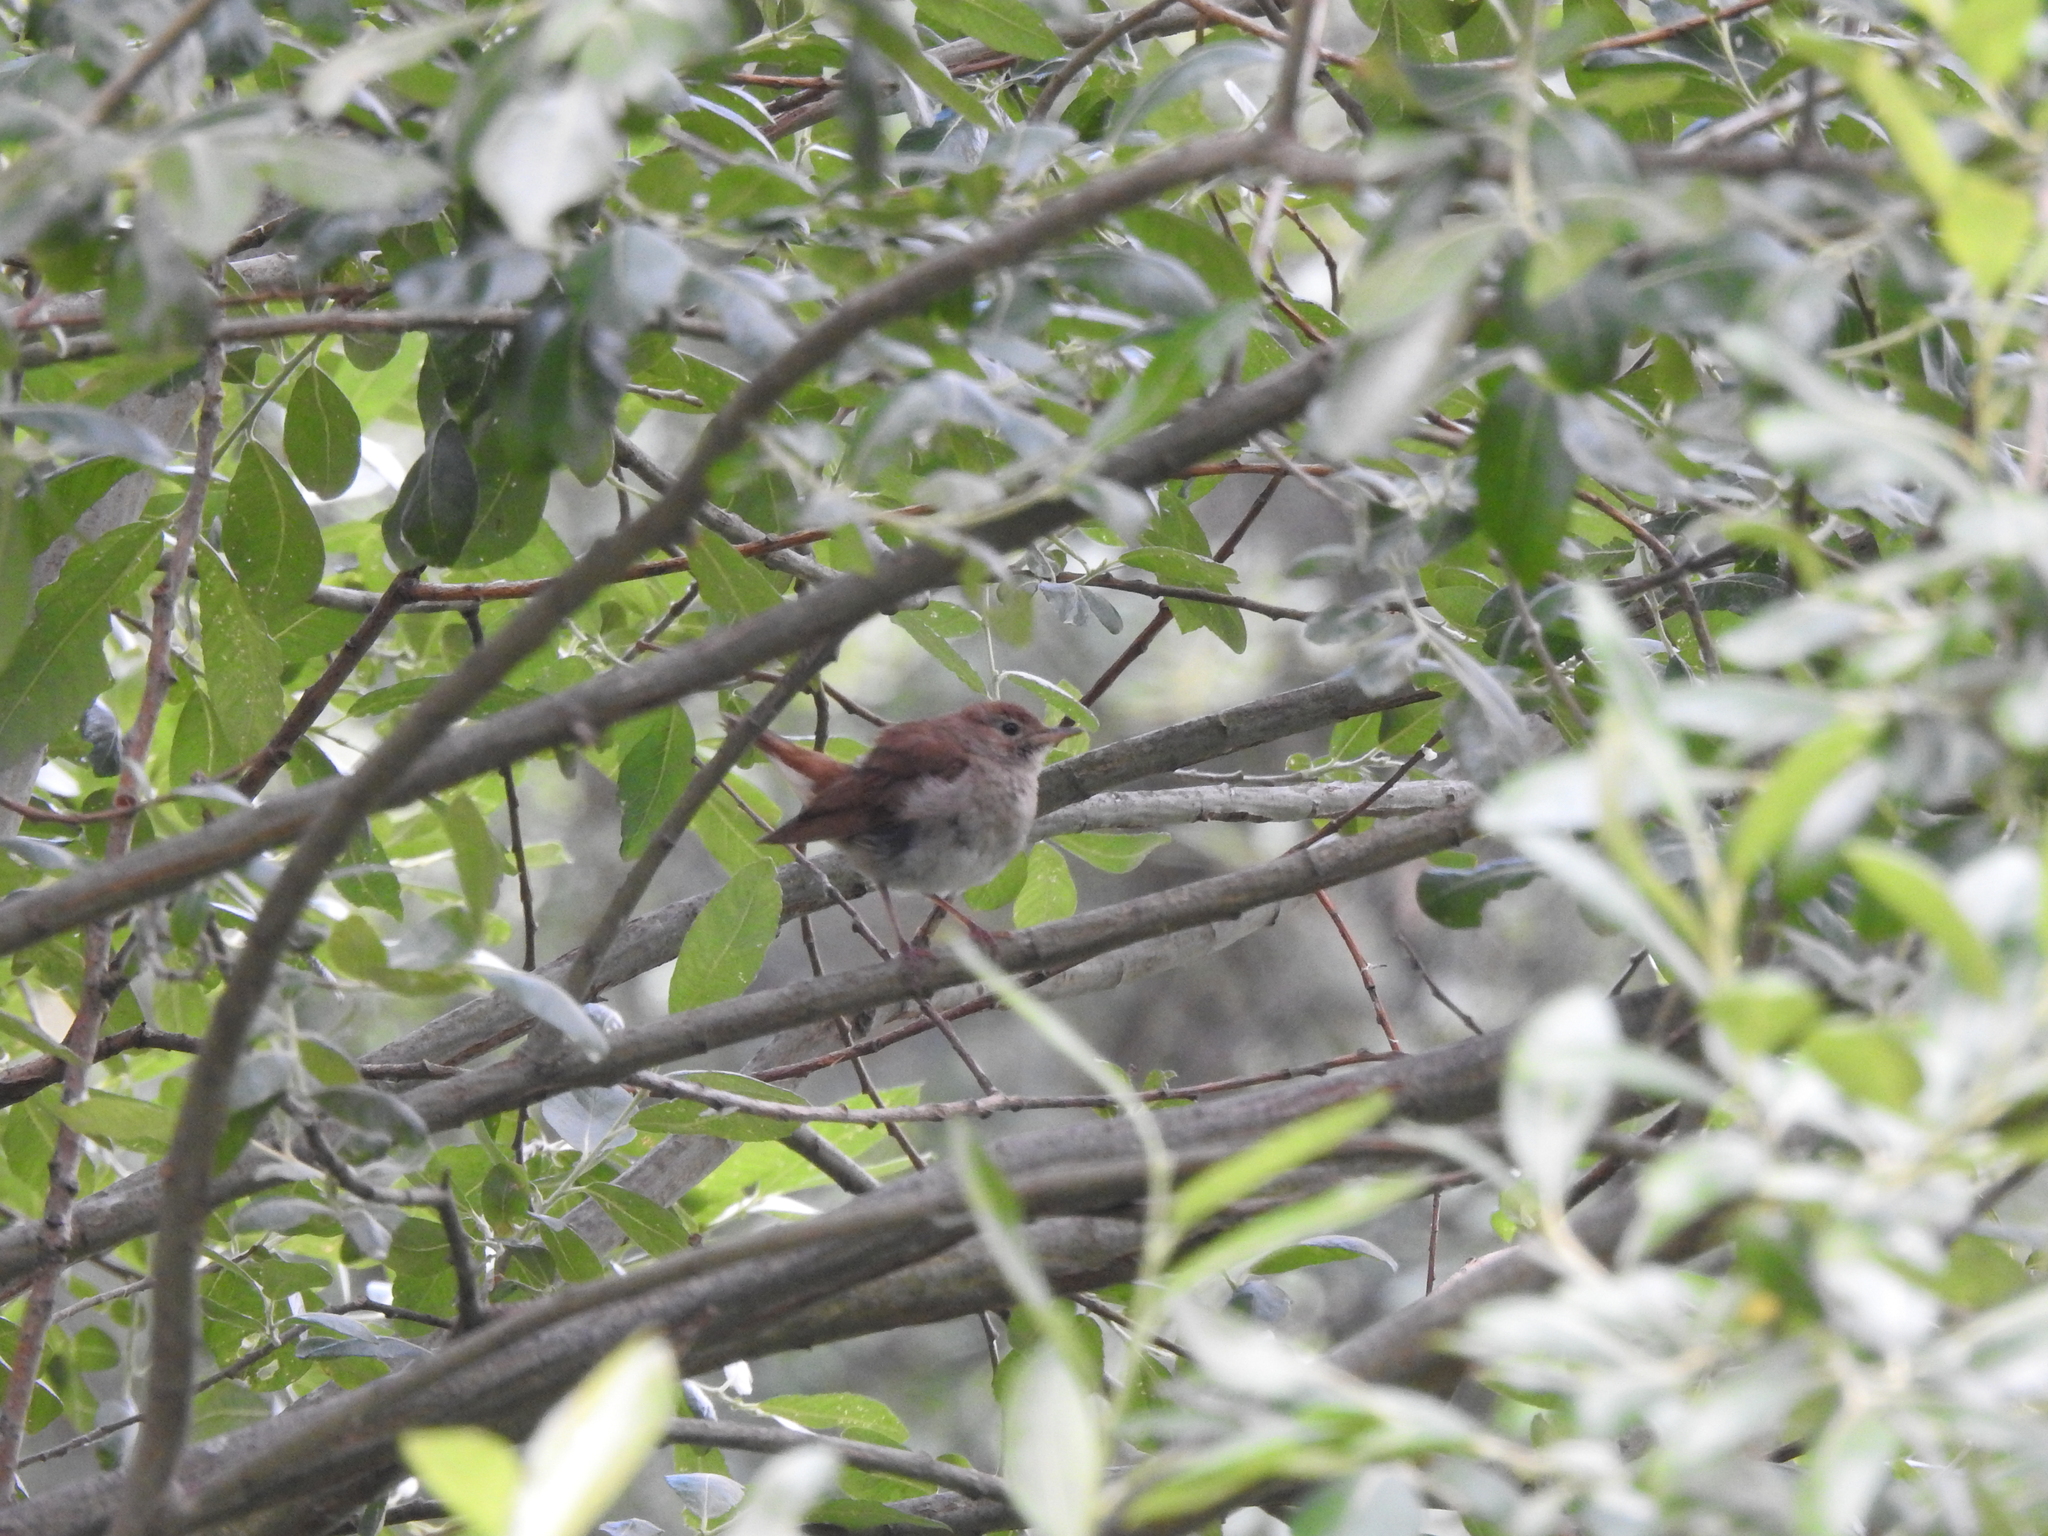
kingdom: Animalia
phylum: Chordata
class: Aves
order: Passeriformes
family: Muscicapidae
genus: Luscinia
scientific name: Luscinia megarhynchos
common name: Common nightingale
